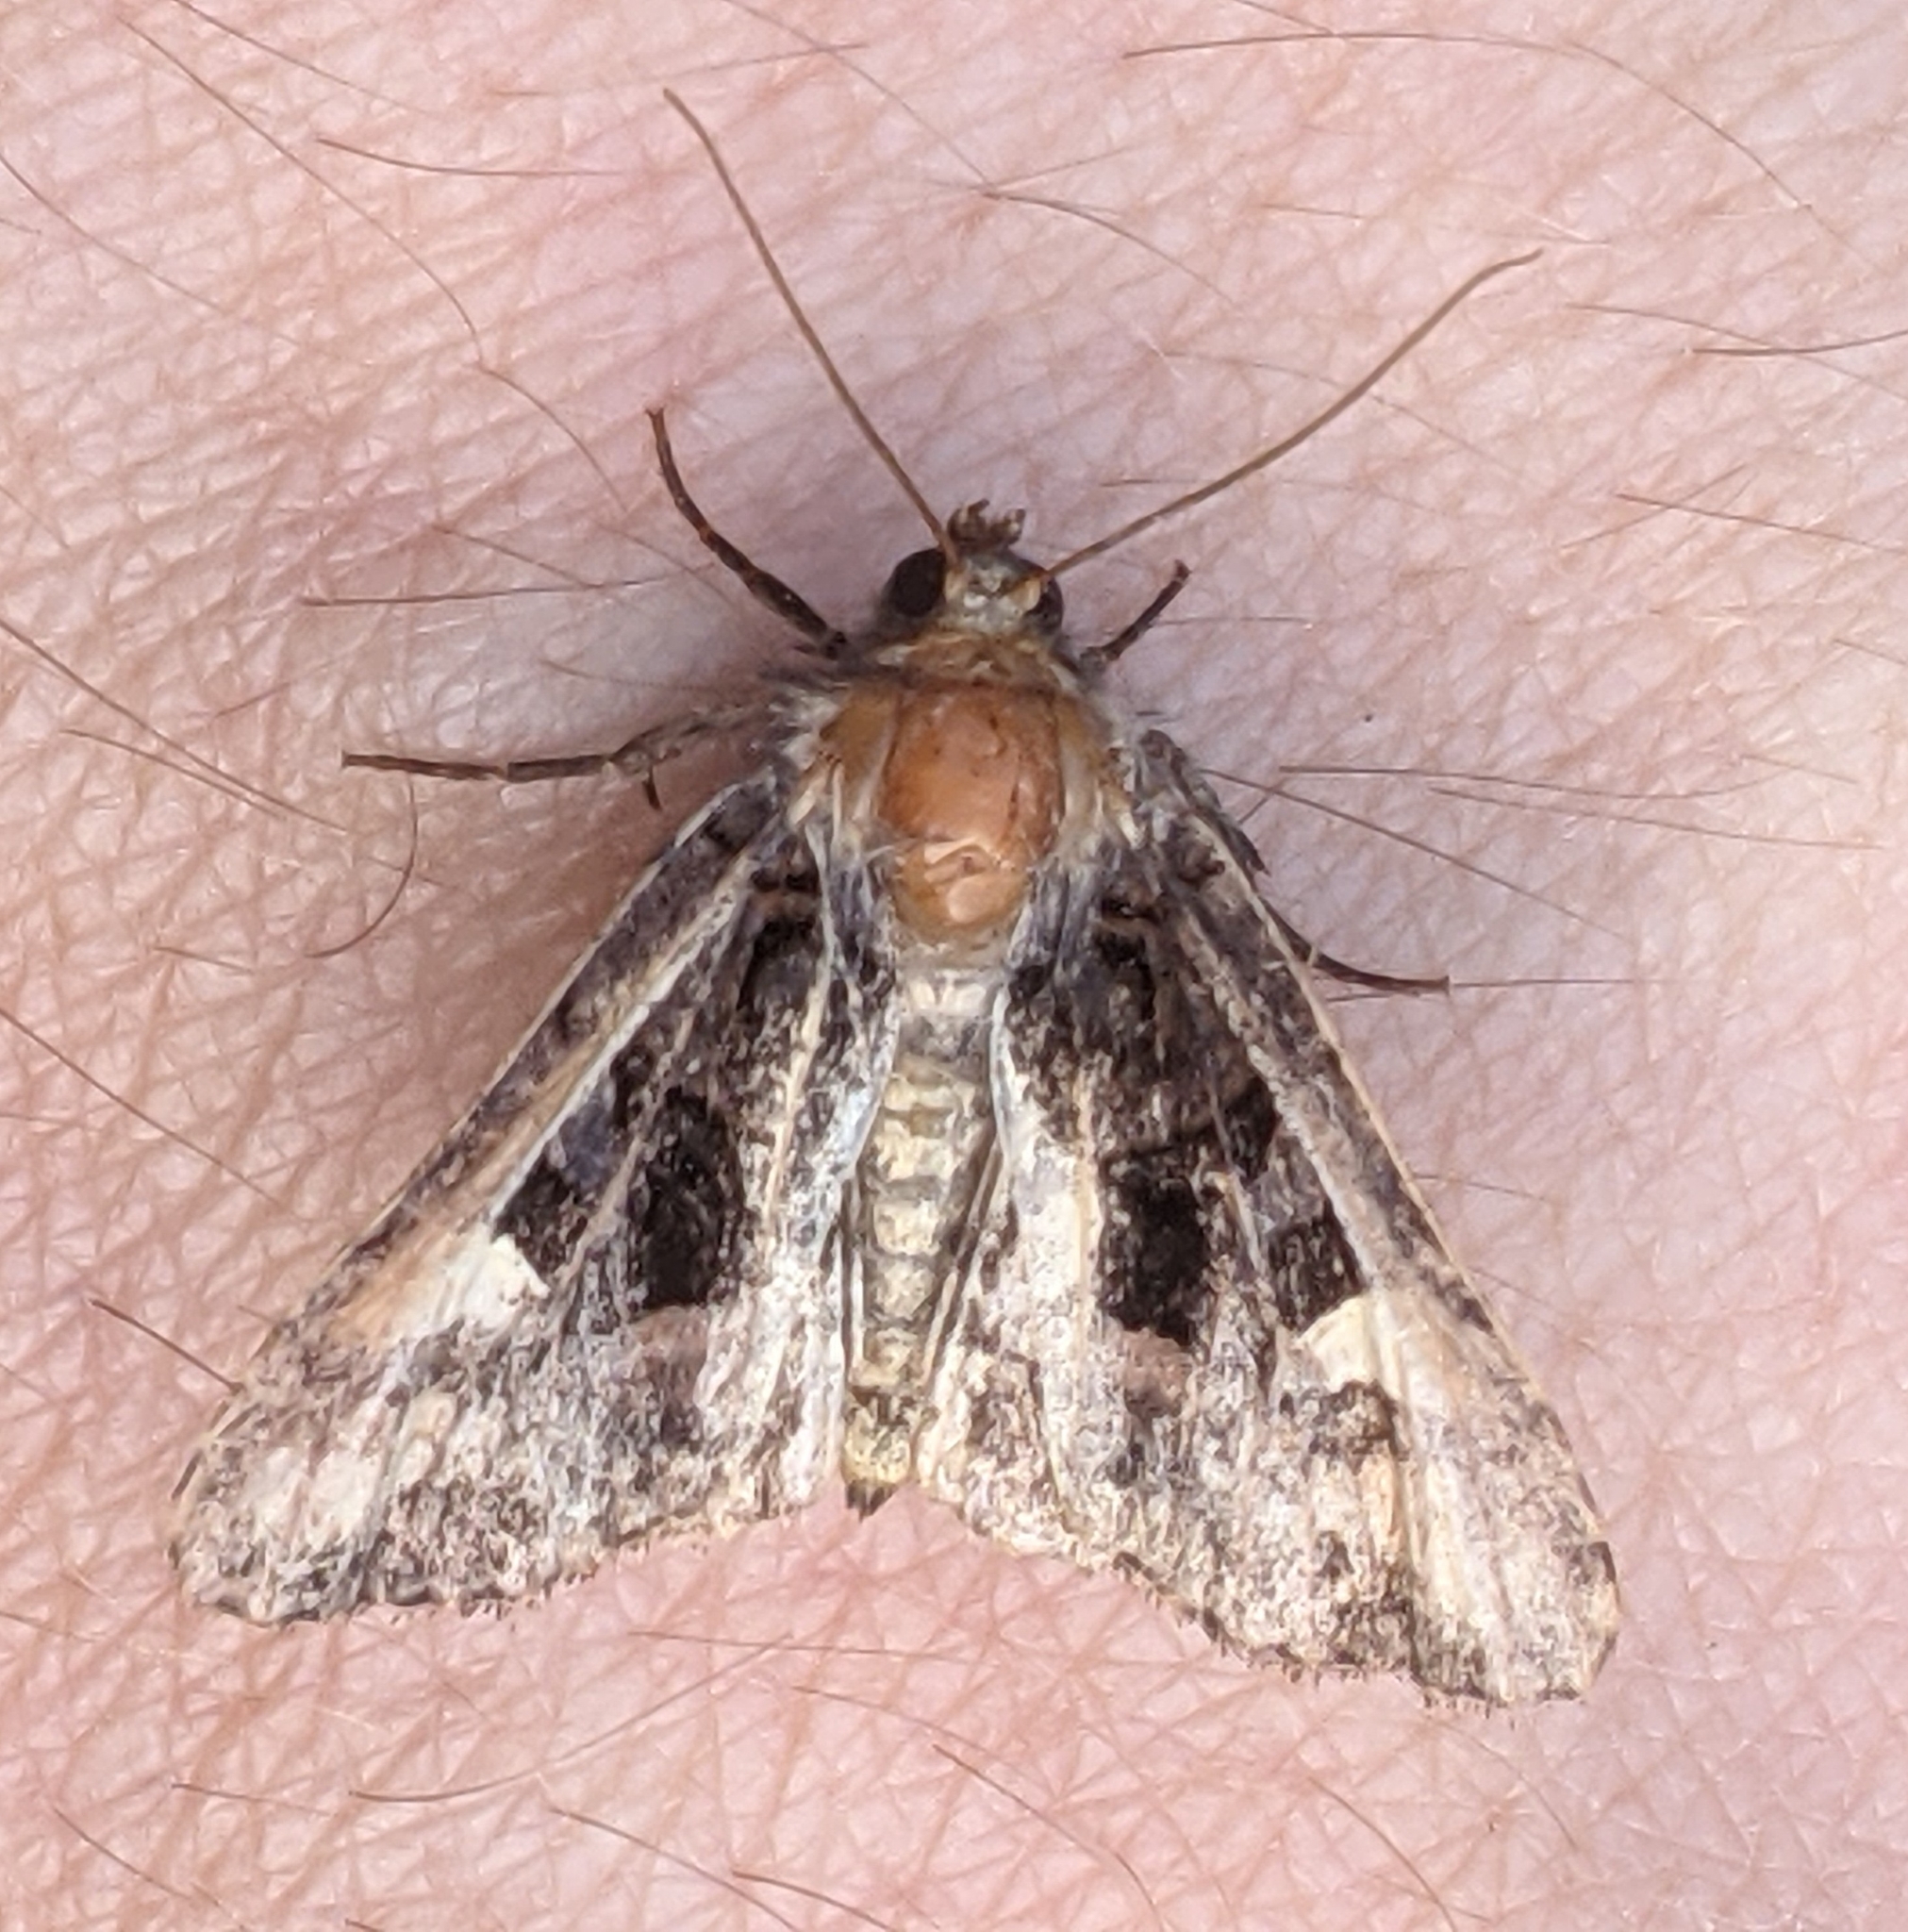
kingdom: Animalia
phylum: Arthropoda
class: Insecta
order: Lepidoptera
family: Noctuidae
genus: Euplexia
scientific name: Euplexia benesimilis
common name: American angle shades
